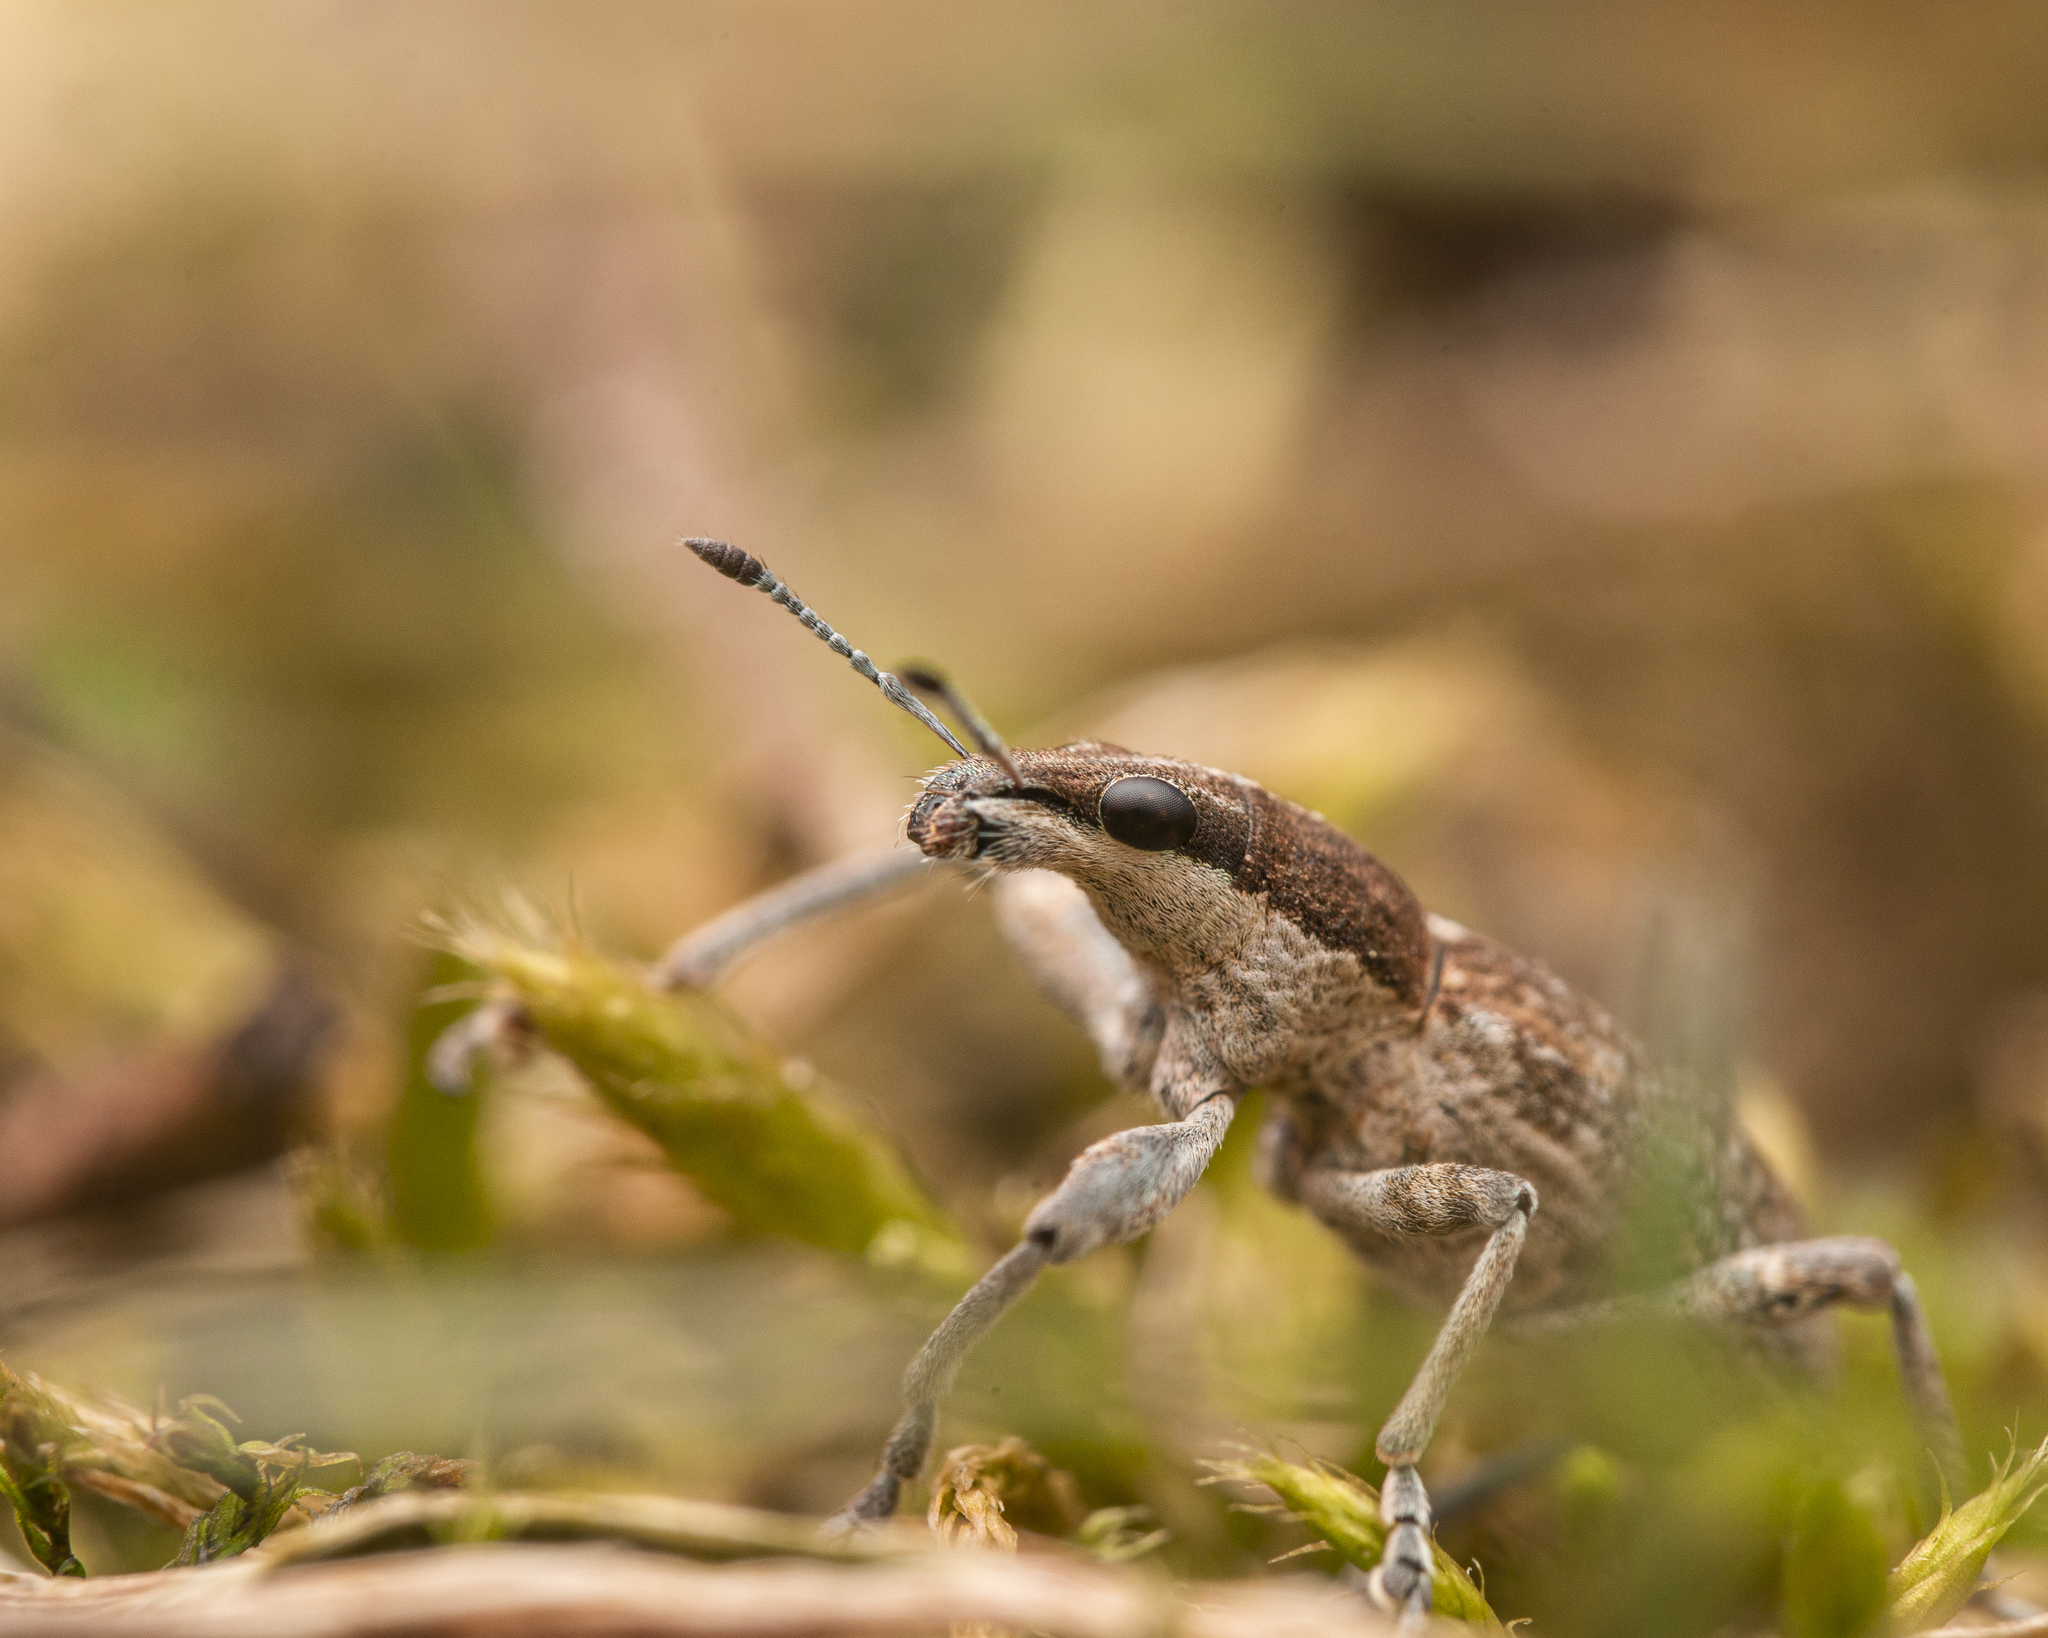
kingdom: Animalia
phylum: Arthropoda
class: Insecta
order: Coleoptera
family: Curculionidae
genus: Charagmus
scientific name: Charagmus gressorius
